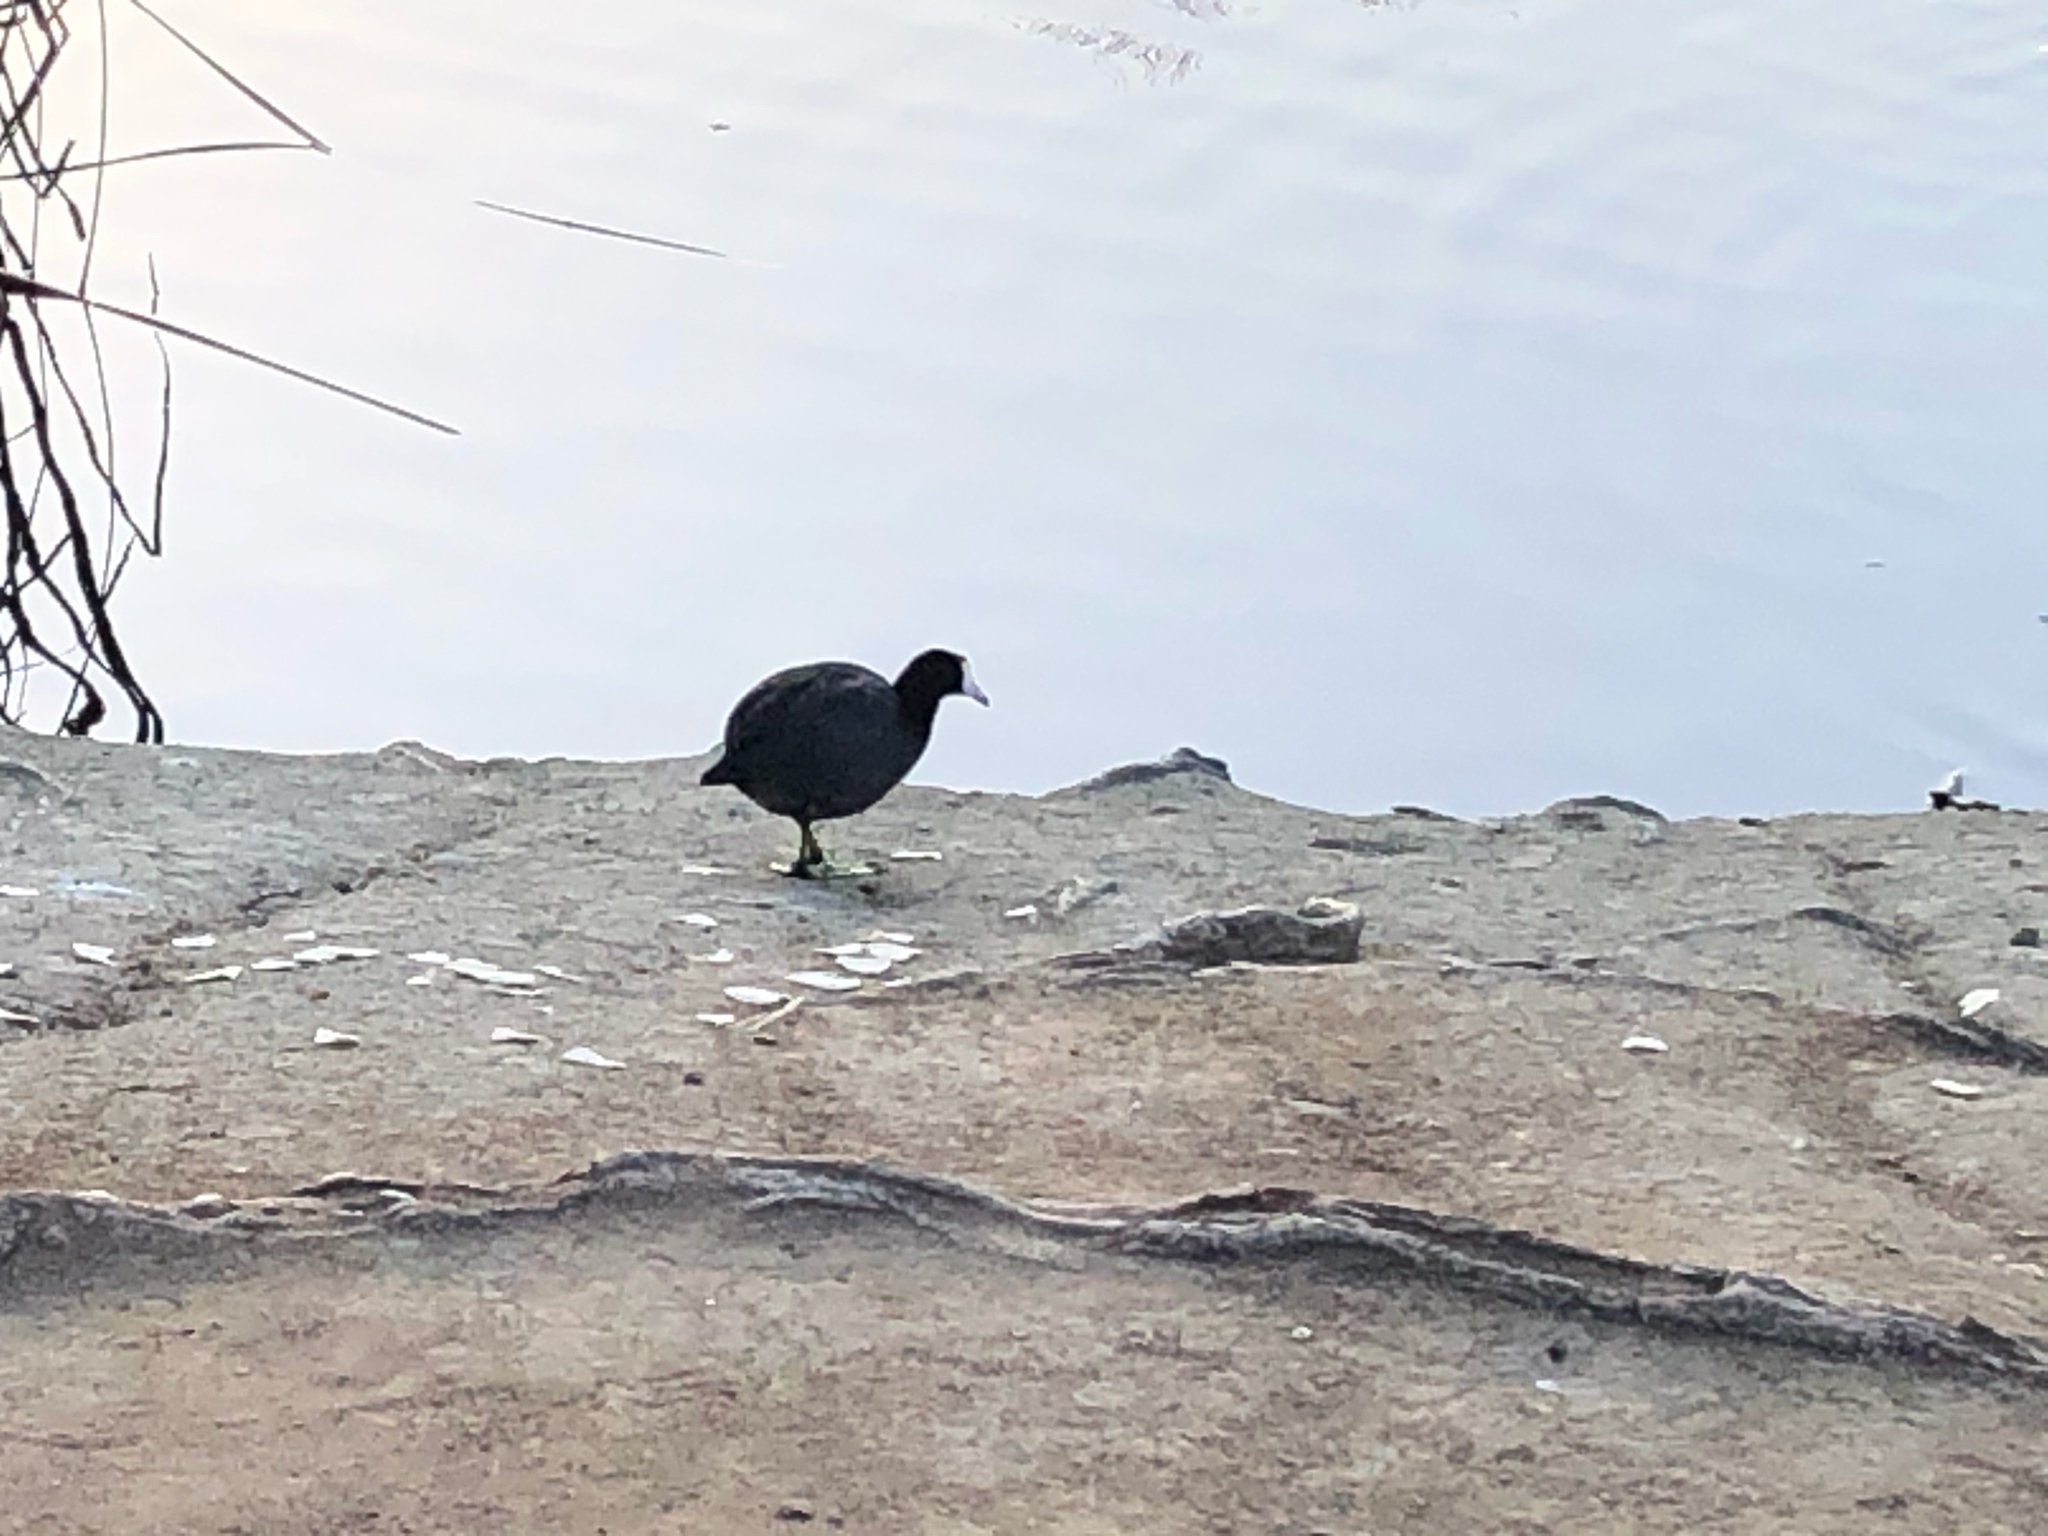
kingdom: Animalia
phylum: Chordata
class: Aves
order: Gruiformes
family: Rallidae
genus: Fulica
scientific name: Fulica americana
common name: American coot
